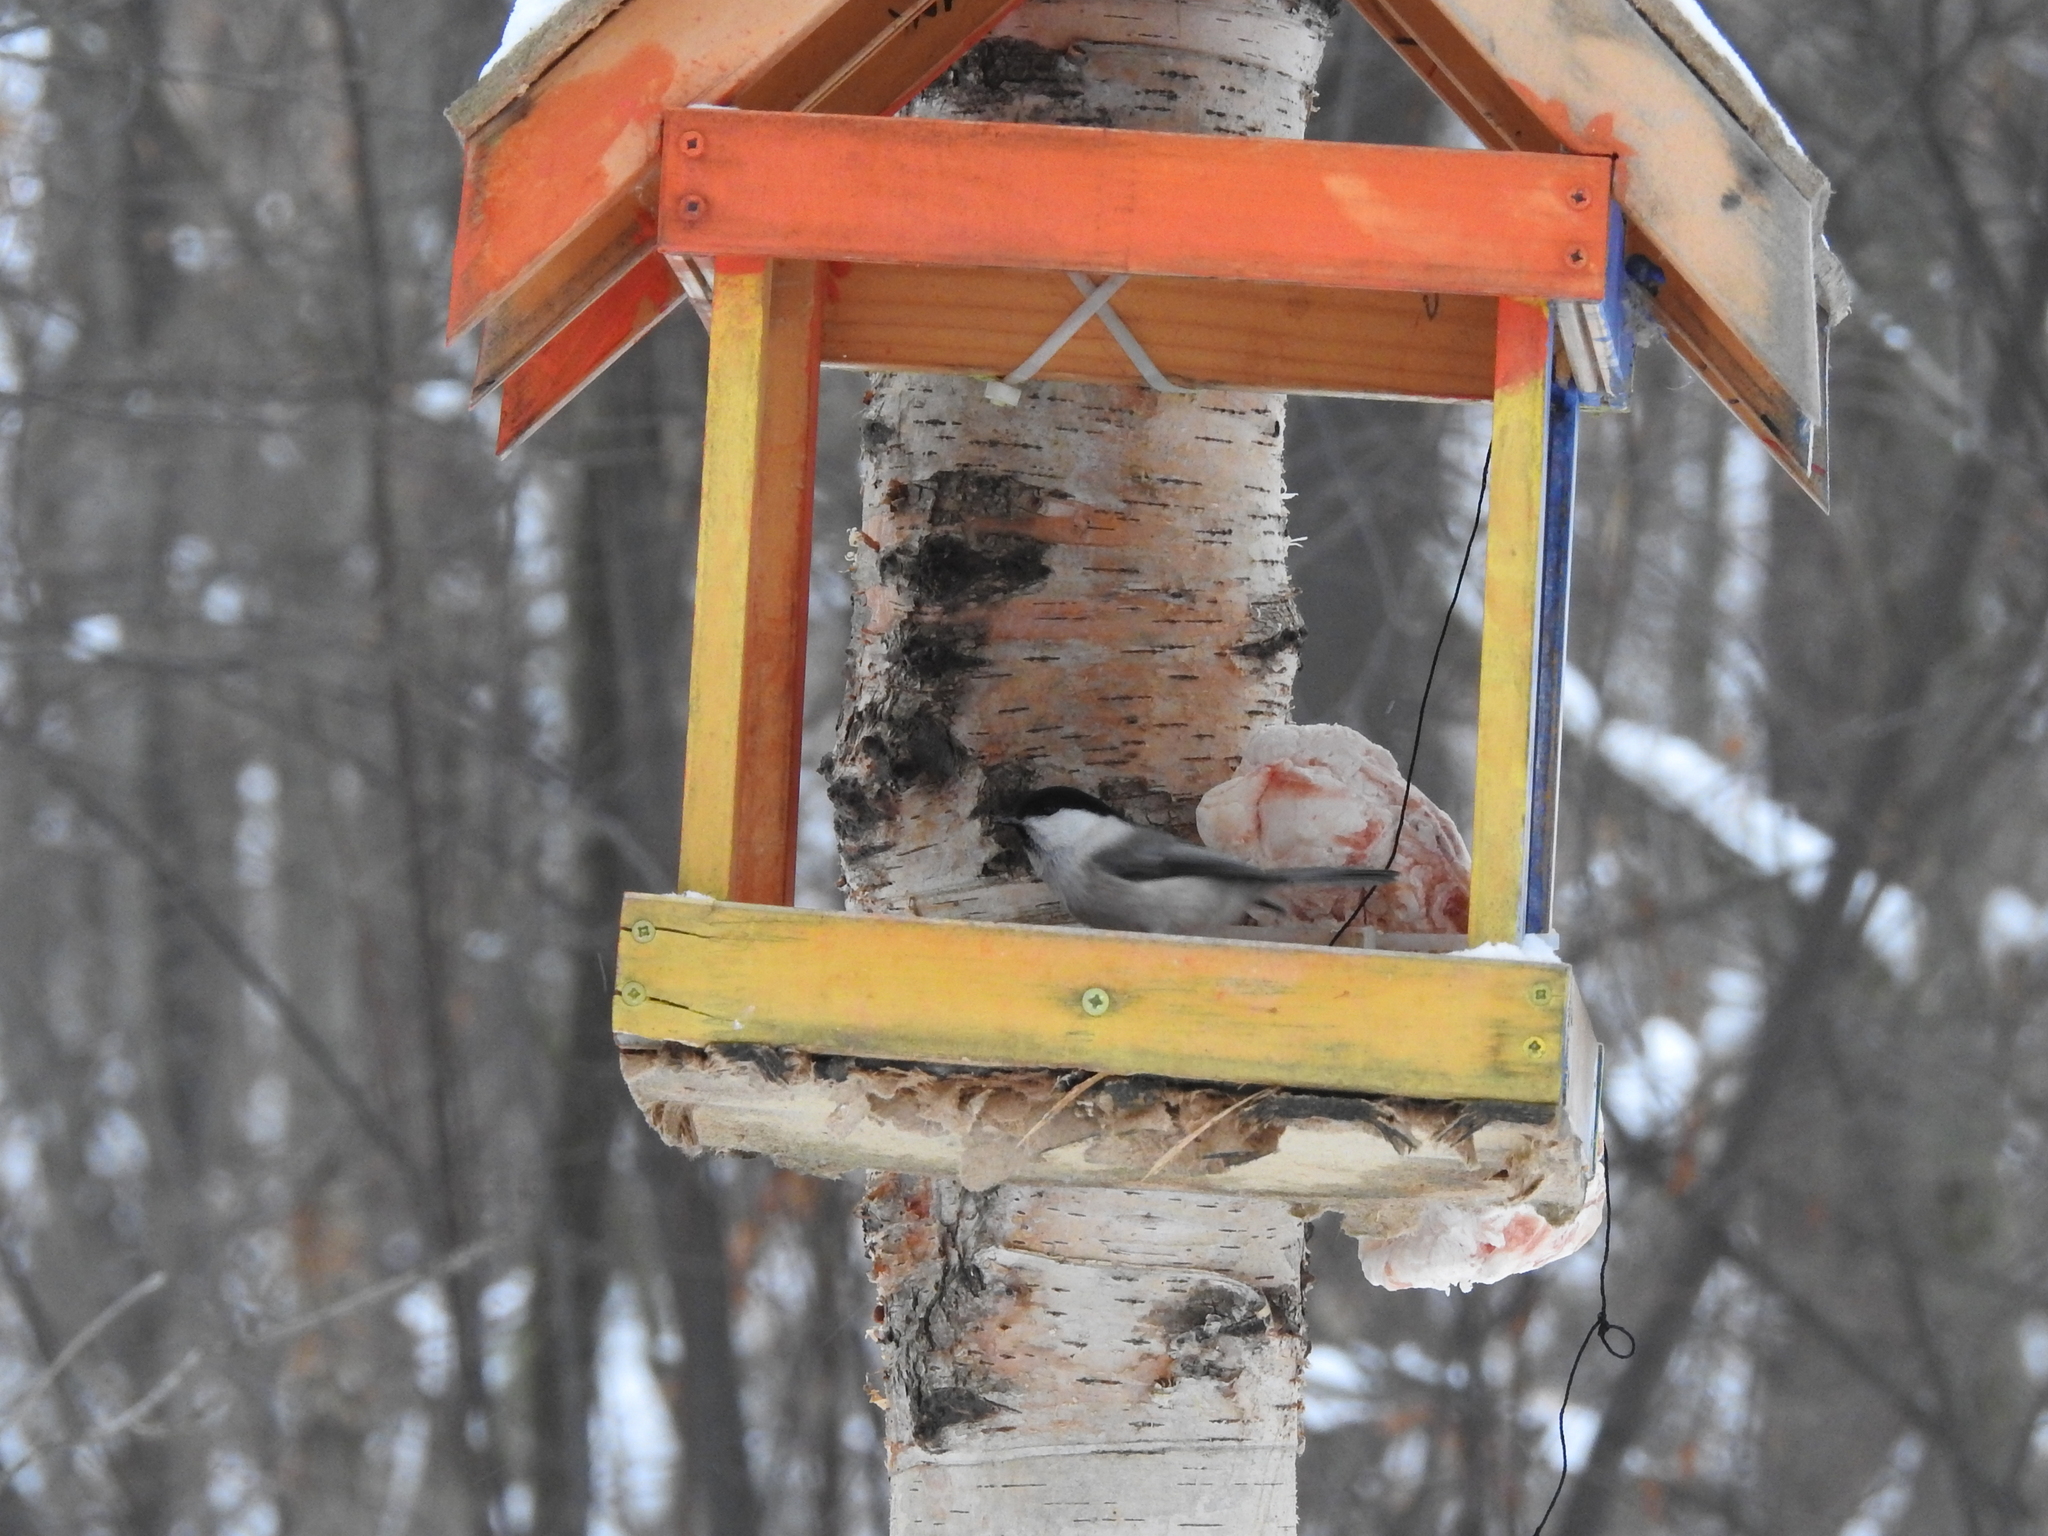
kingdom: Animalia
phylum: Chordata
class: Aves
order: Passeriformes
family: Paridae
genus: Poecile
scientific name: Poecile montanus
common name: Willow tit
